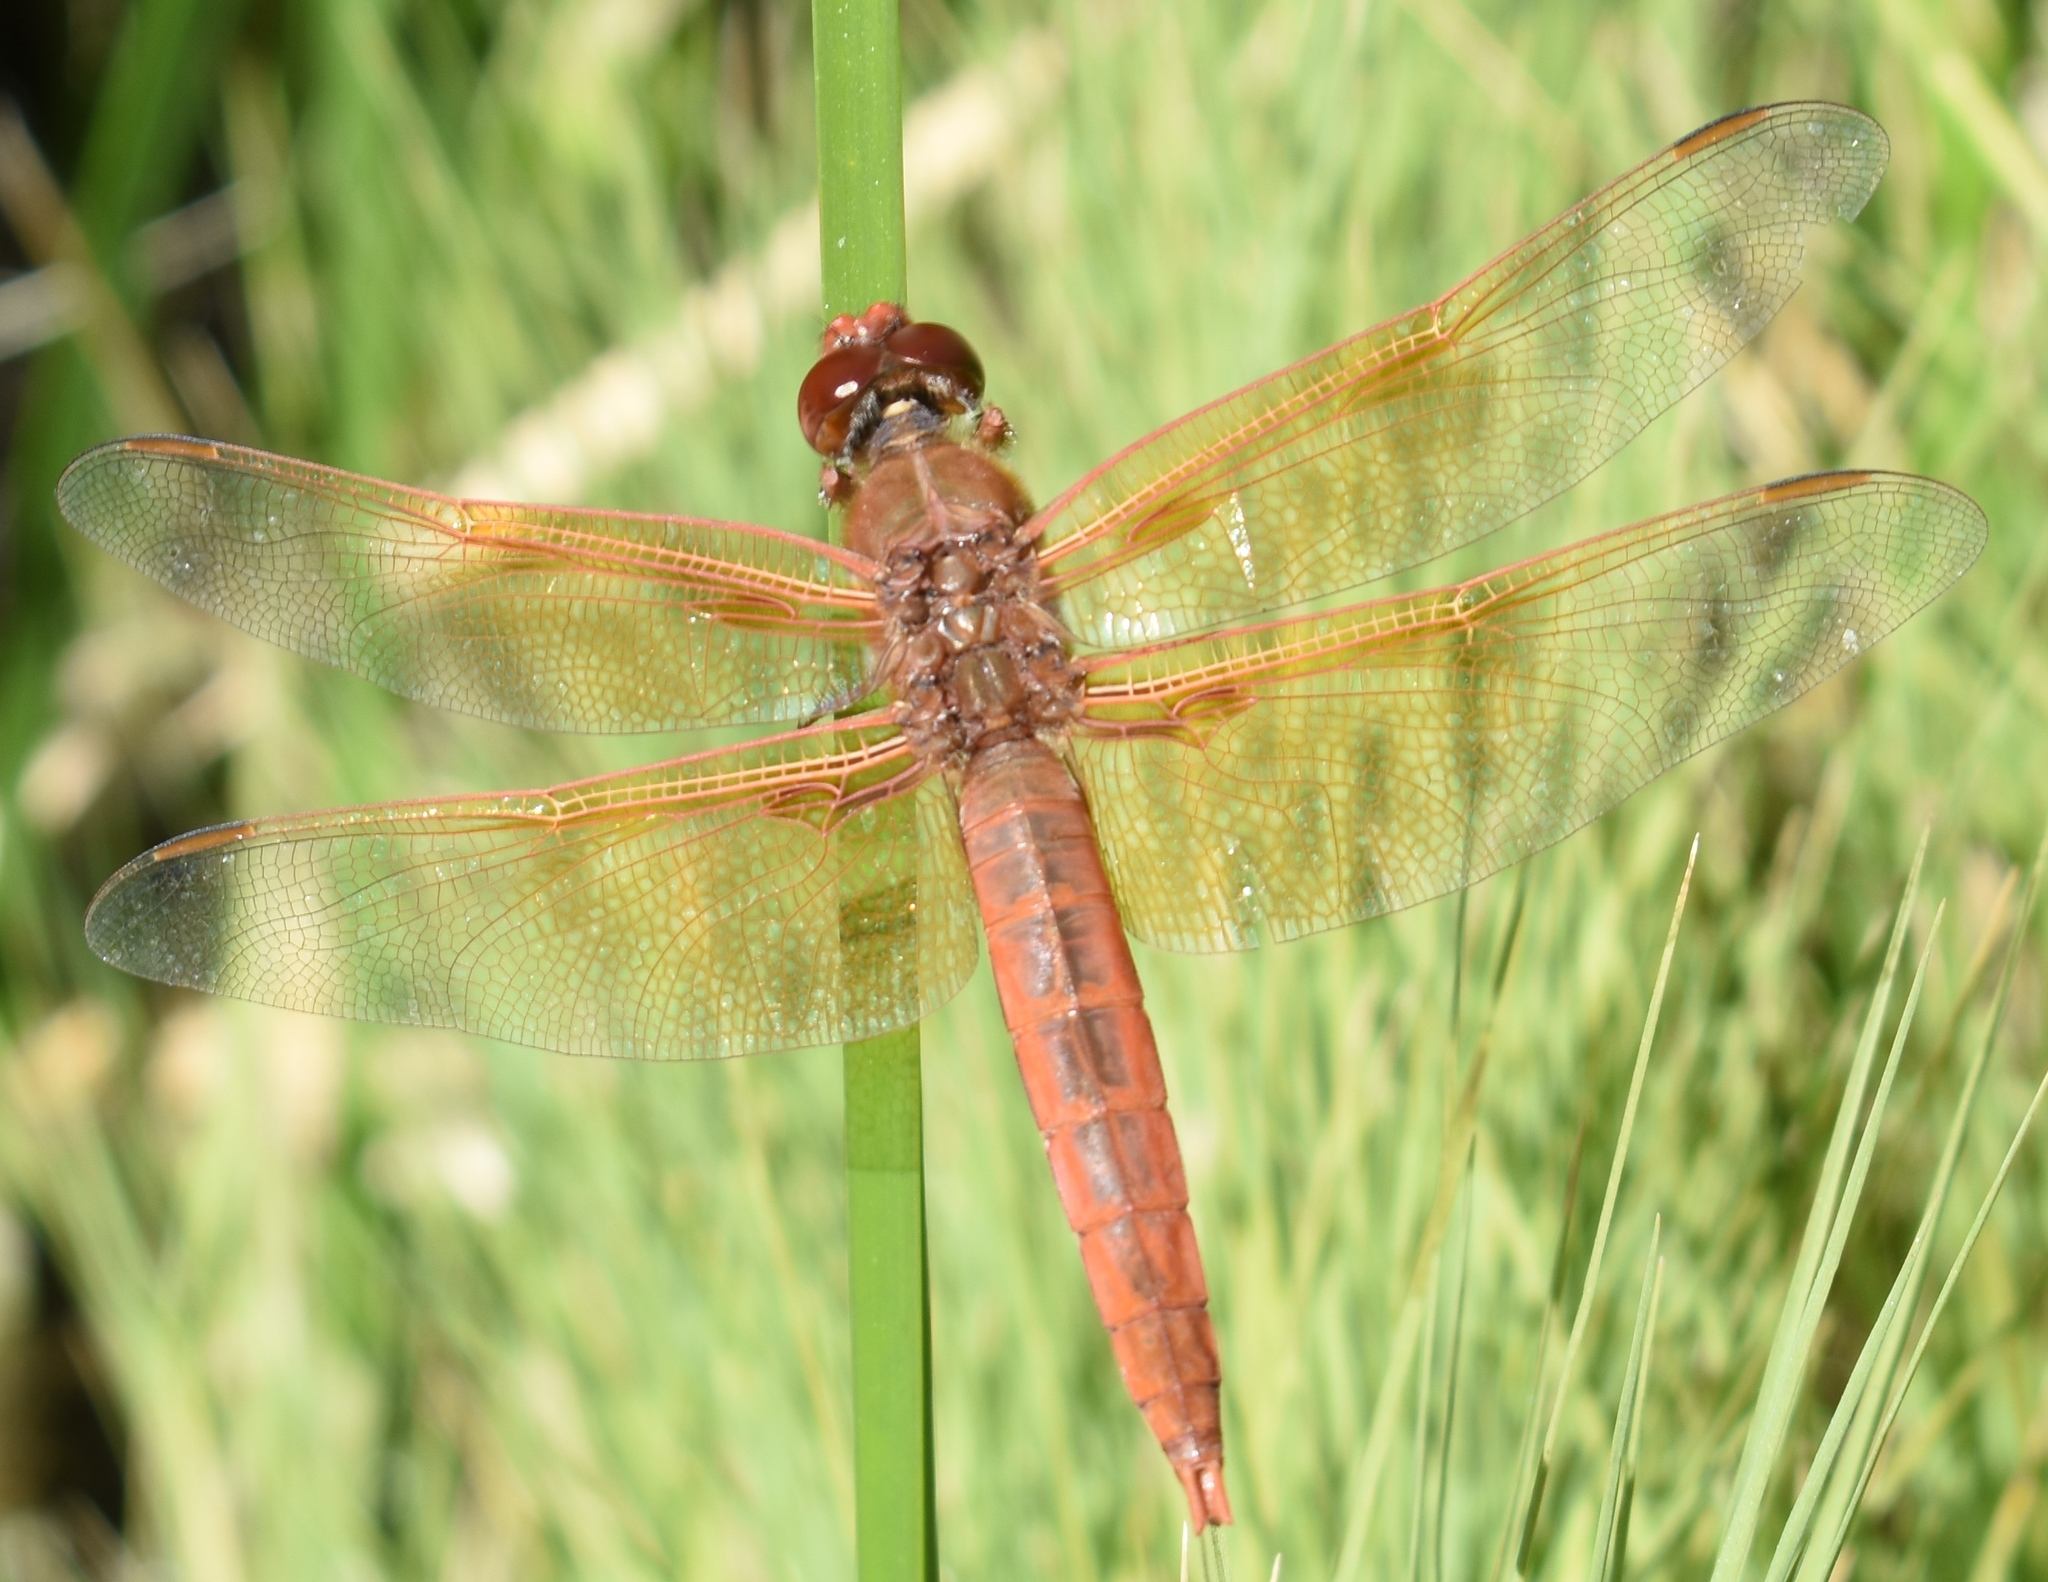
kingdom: Animalia
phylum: Arthropoda
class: Insecta
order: Odonata
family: Libellulidae
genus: Libellula
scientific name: Libellula saturata
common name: Flame skimmer
